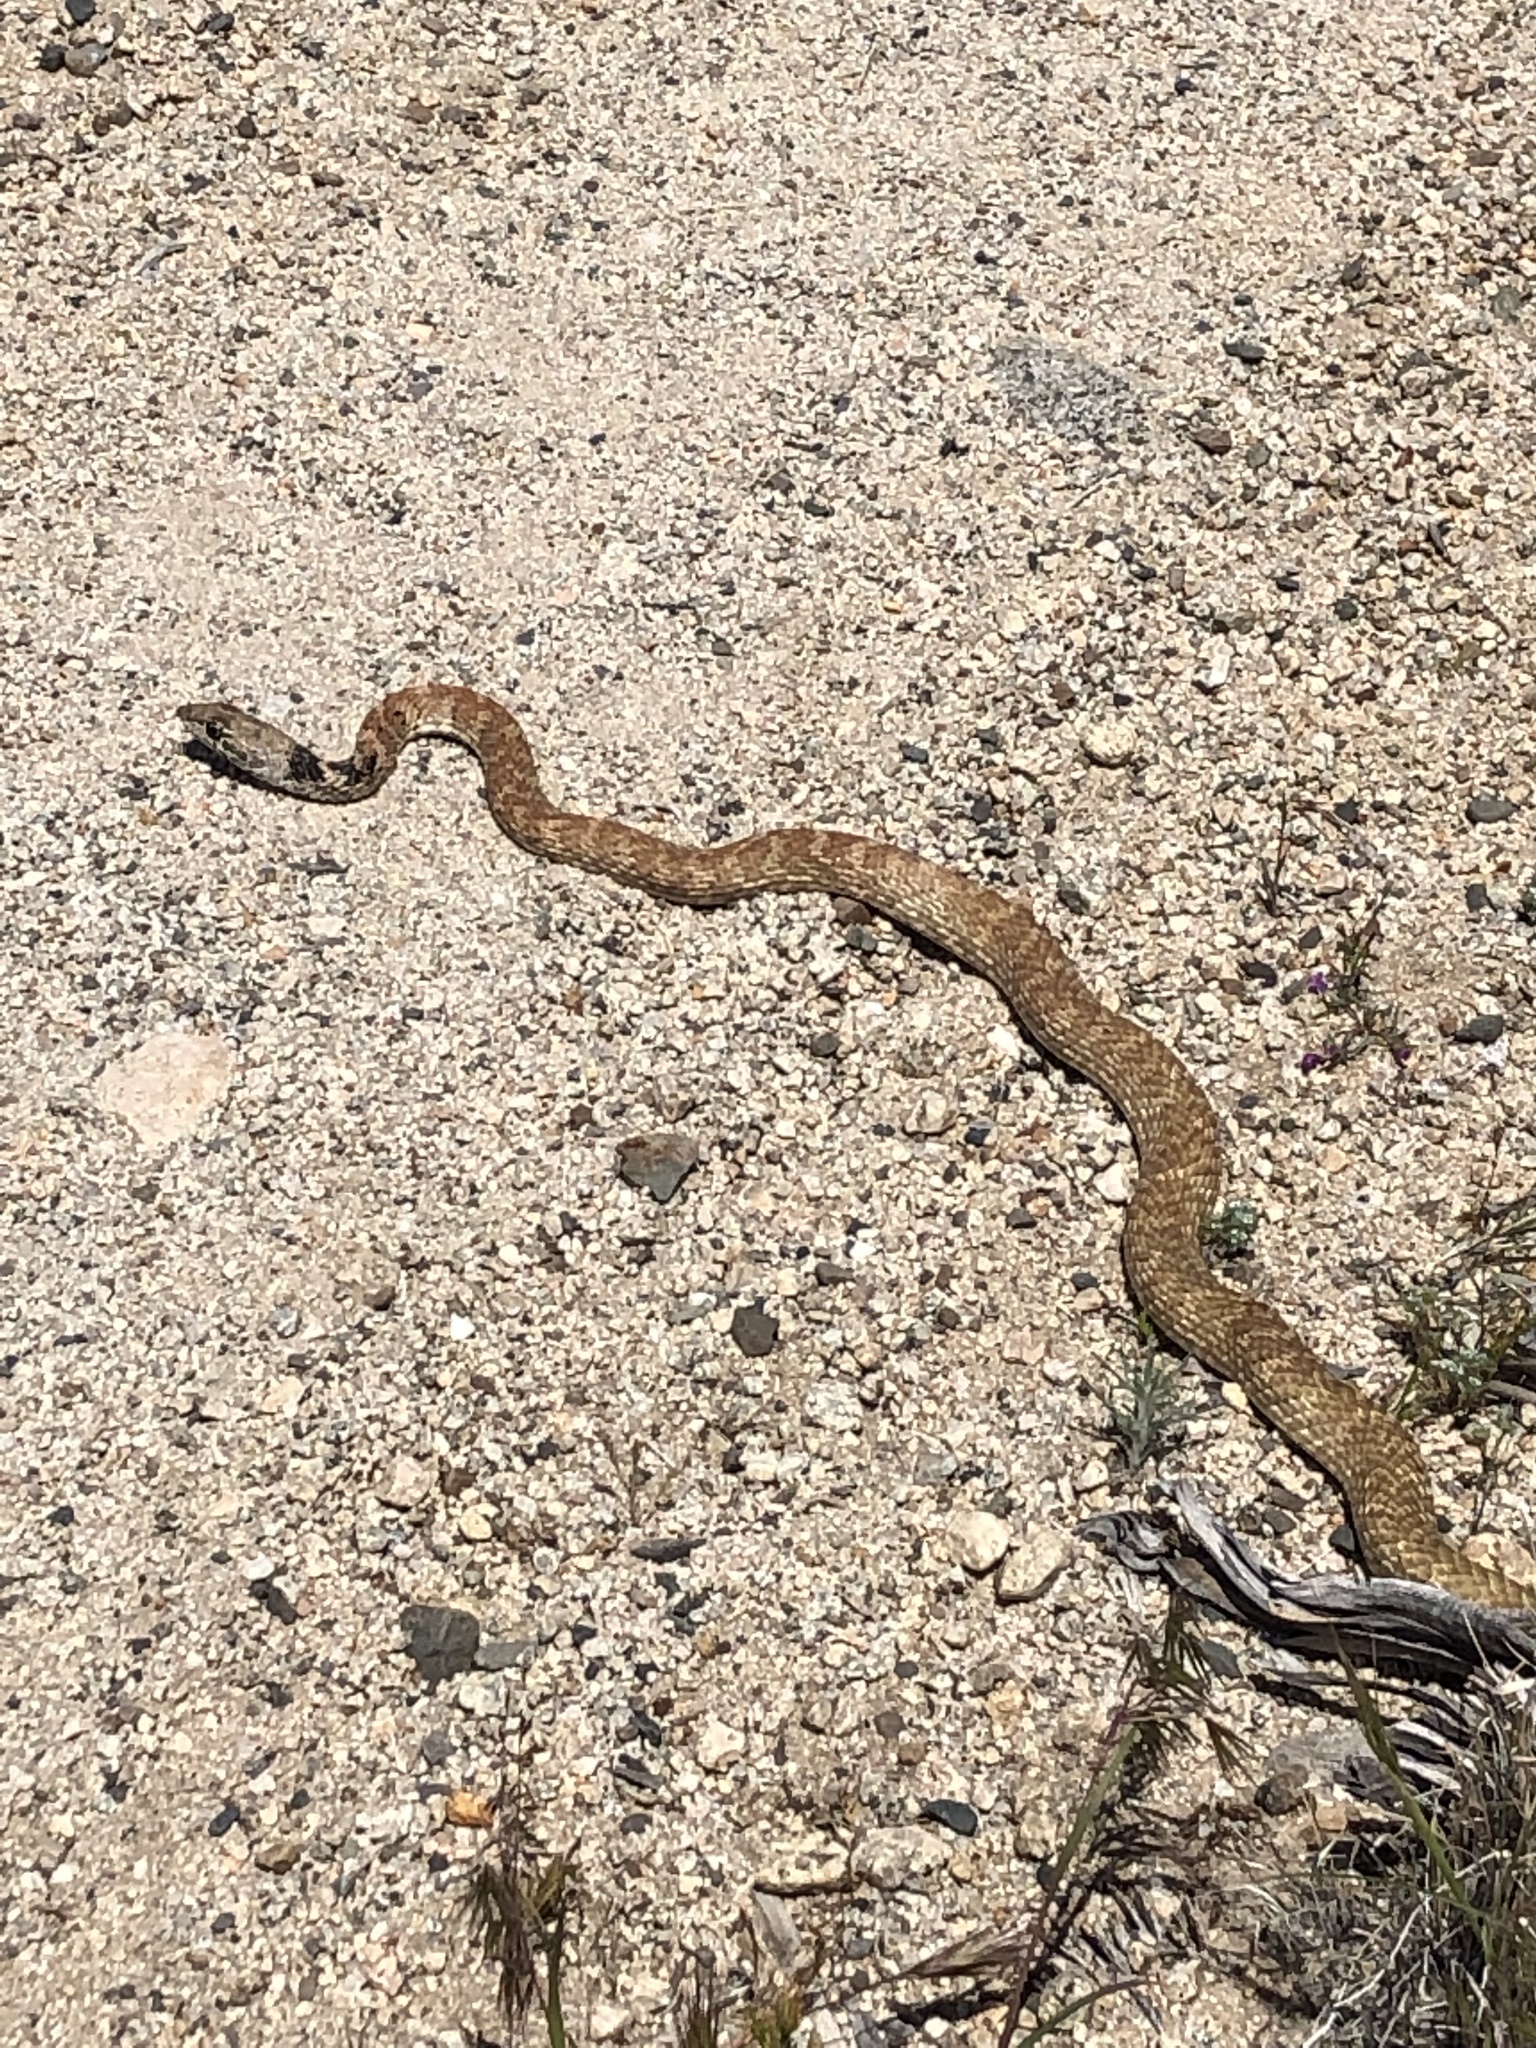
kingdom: Animalia
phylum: Chordata
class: Squamata
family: Colubridae
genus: Masticophis
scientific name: Masticophis flagellum
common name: Coachwhip
